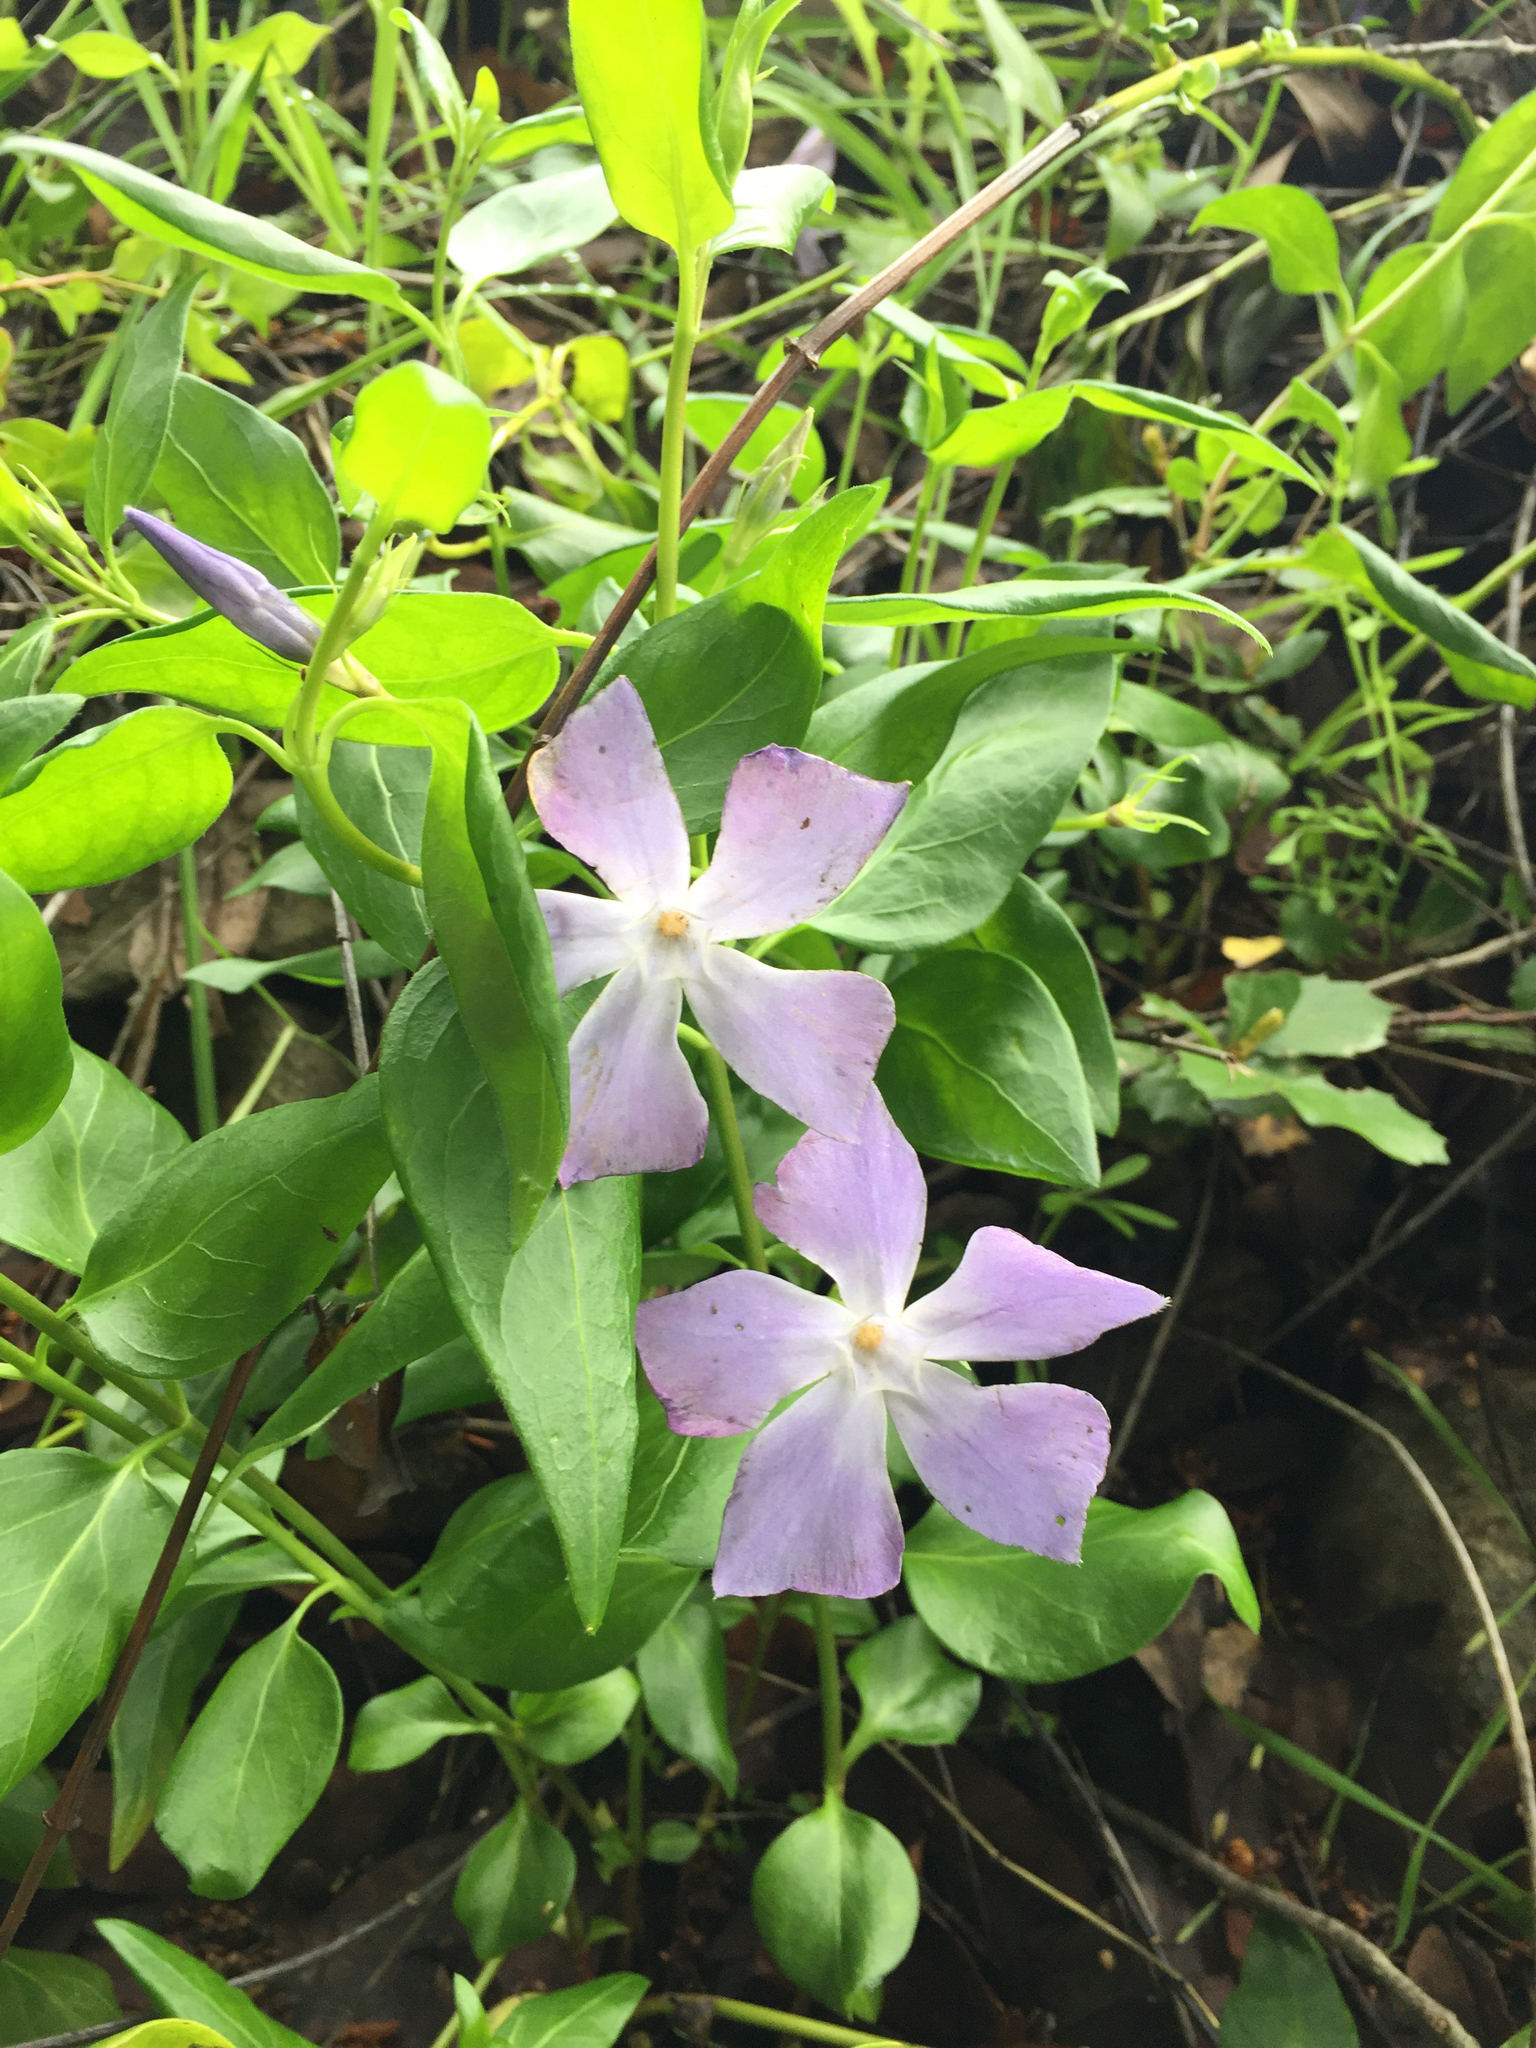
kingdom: Plantae
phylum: Tracheophyta
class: Magnoliopsida
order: Gentianales
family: Apocynaceae
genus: Vinca
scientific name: Vinca major
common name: Greater periwinkle
